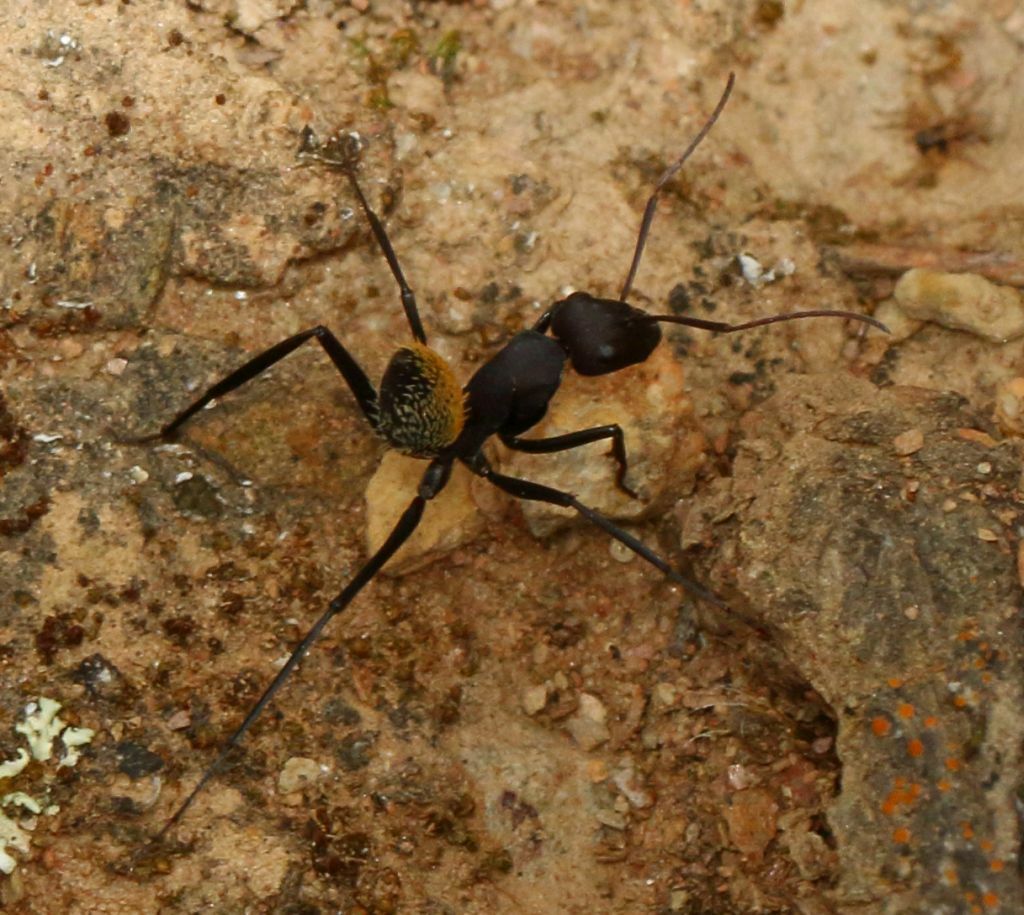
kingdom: Animalia
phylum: Arthropoda
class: Insecta
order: Hymenoptera
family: Formicidae
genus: Camponotus
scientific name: Camponotus fulvopilosus
